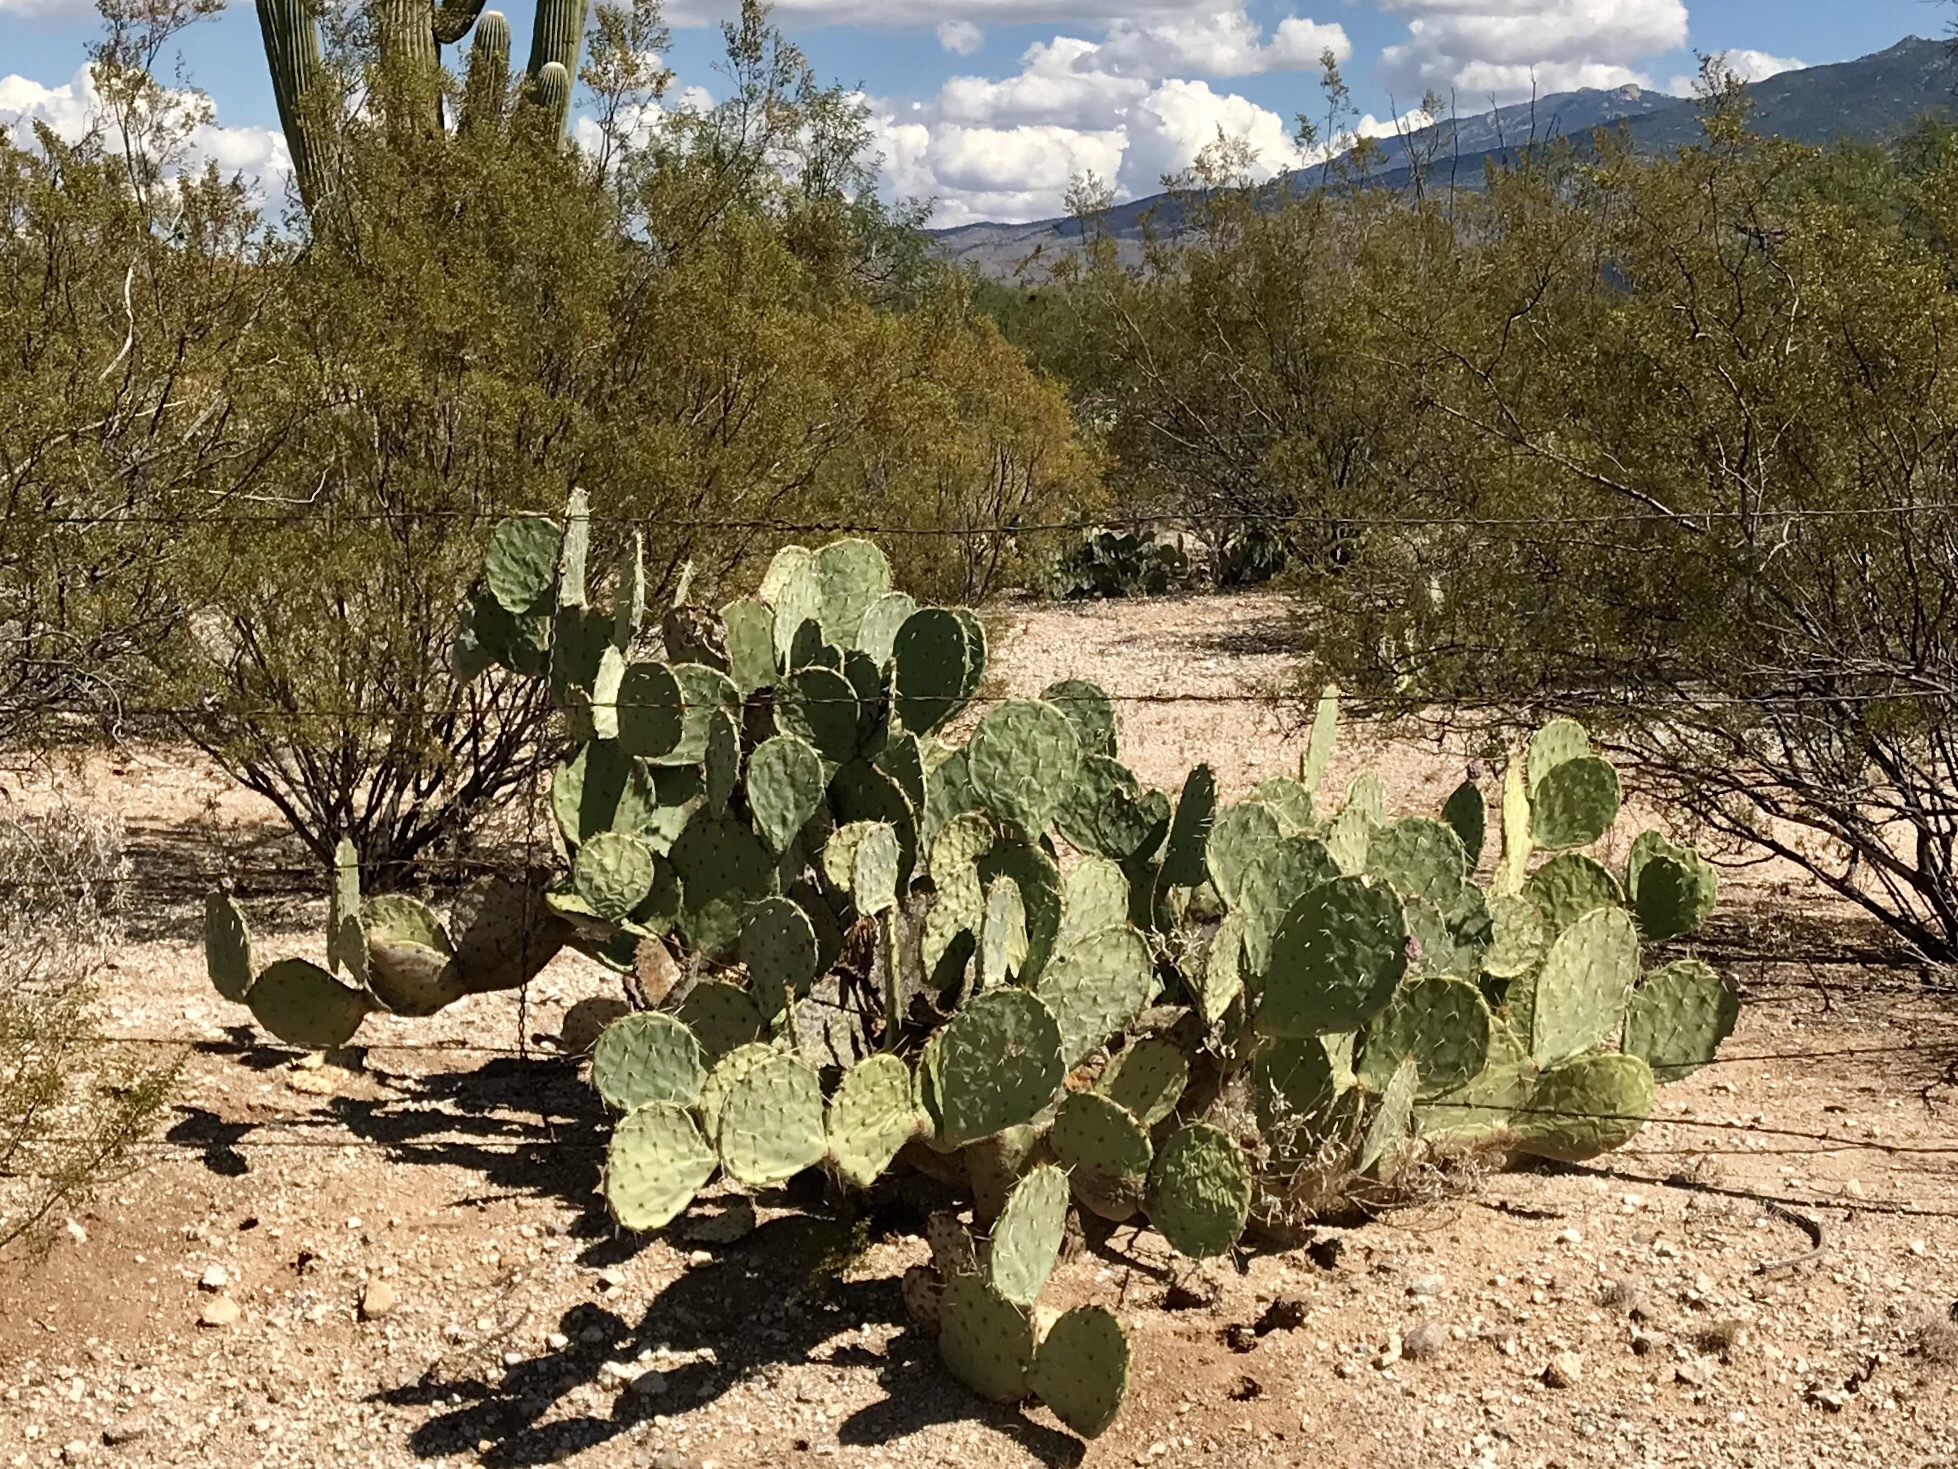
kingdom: Plantae
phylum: Tracheophyta
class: Magnoliopsida
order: Caryophyllales
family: Cactaceae
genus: Opuntia
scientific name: Opuntia engelmannii
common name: Cactus-apple
